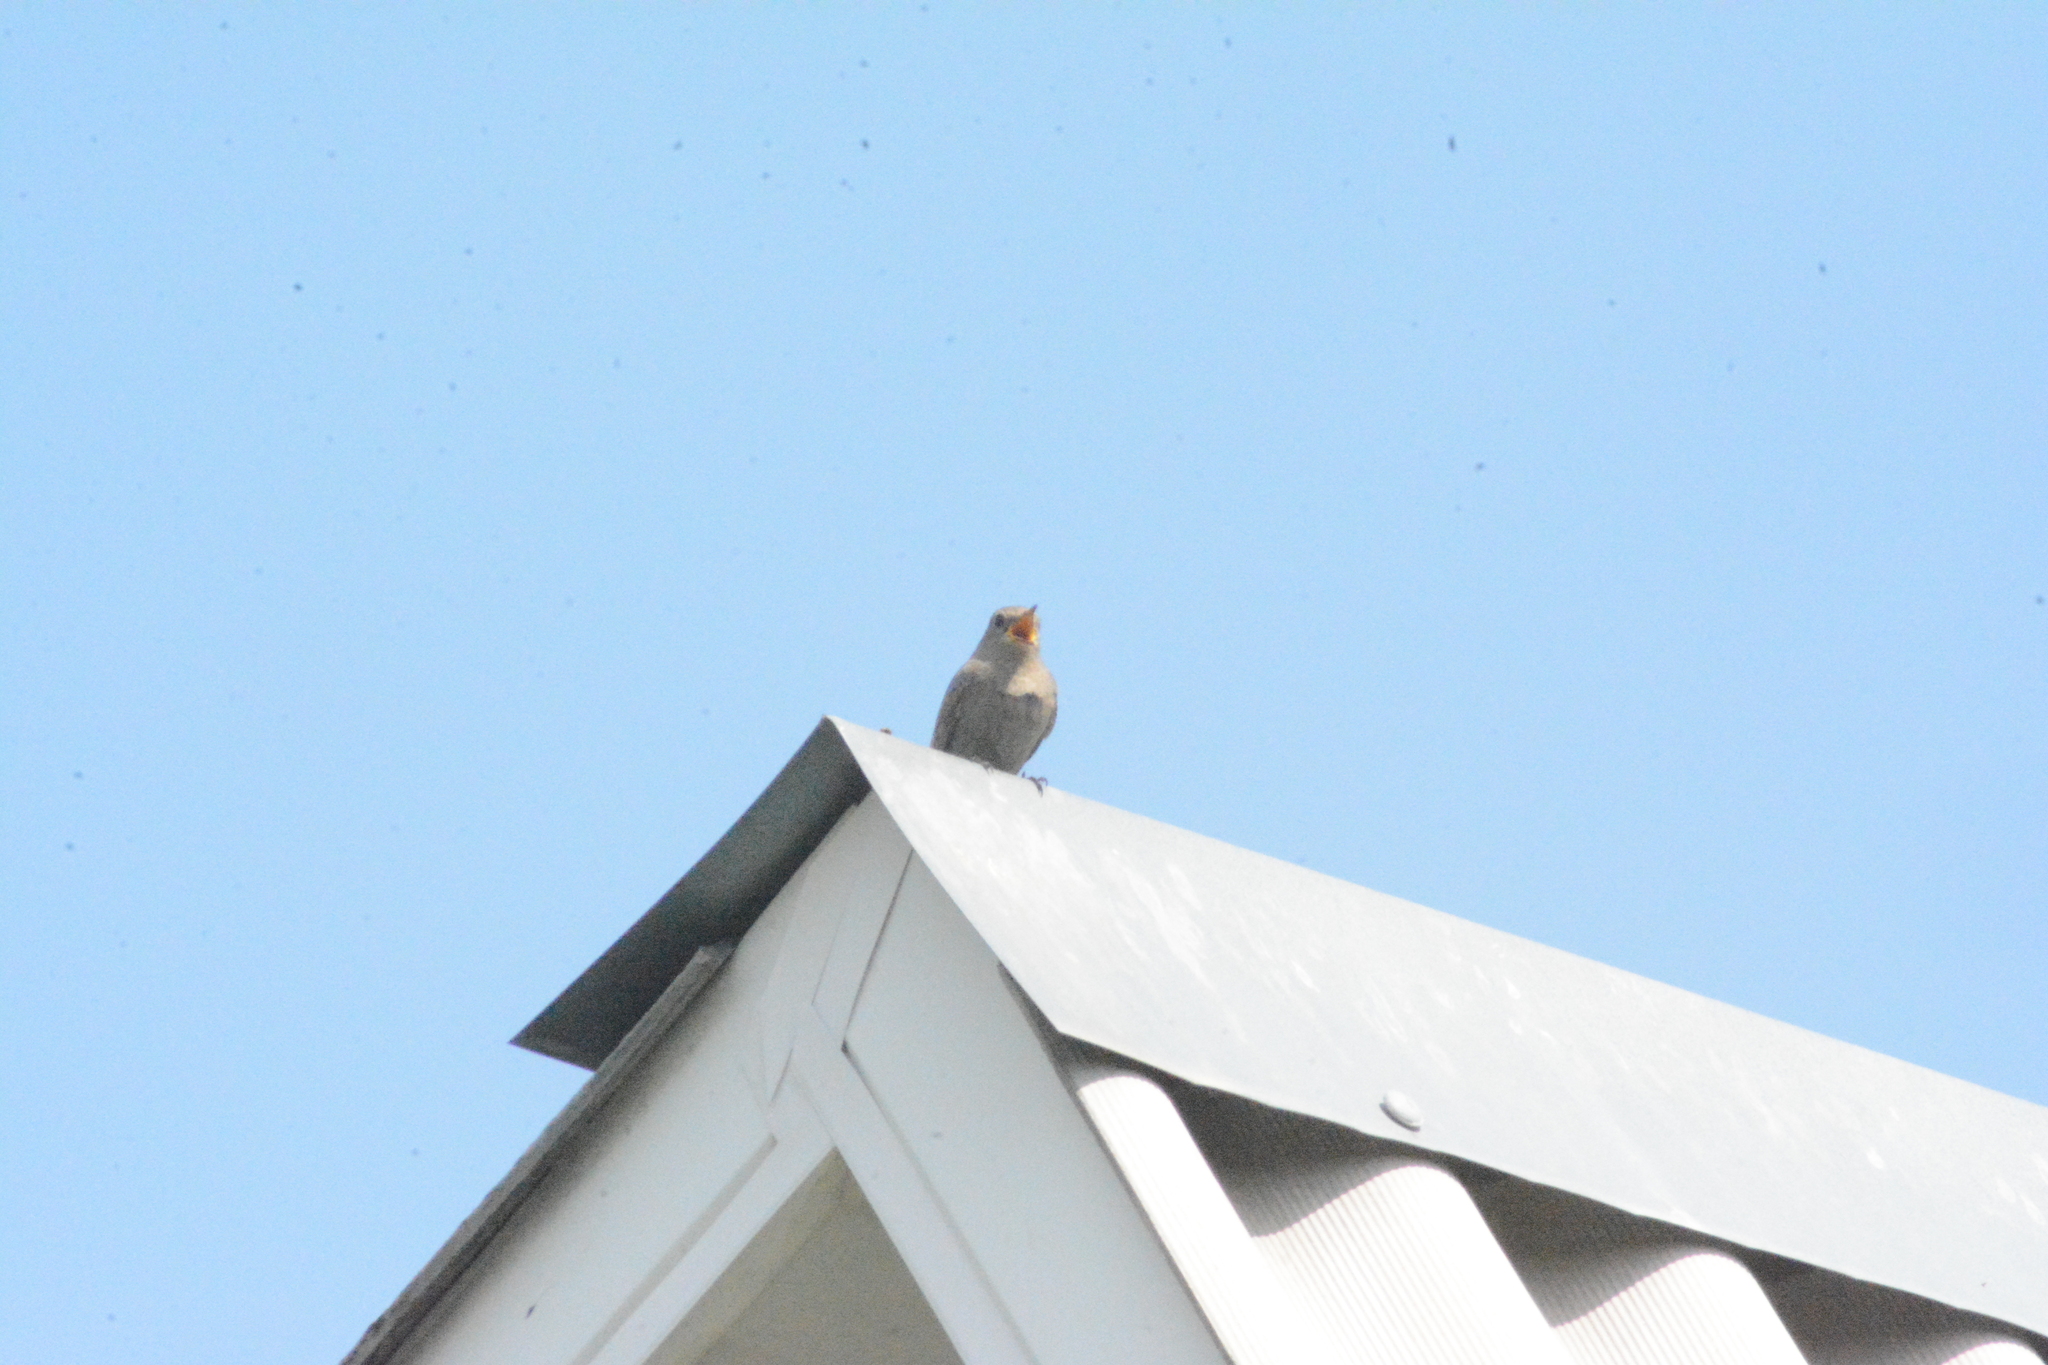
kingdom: Animalia
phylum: Chordata
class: Aves
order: Passeriformes
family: Muscicapidae
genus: Phoenicurus
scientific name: Phoenicurus ochruros
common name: Black redstart
